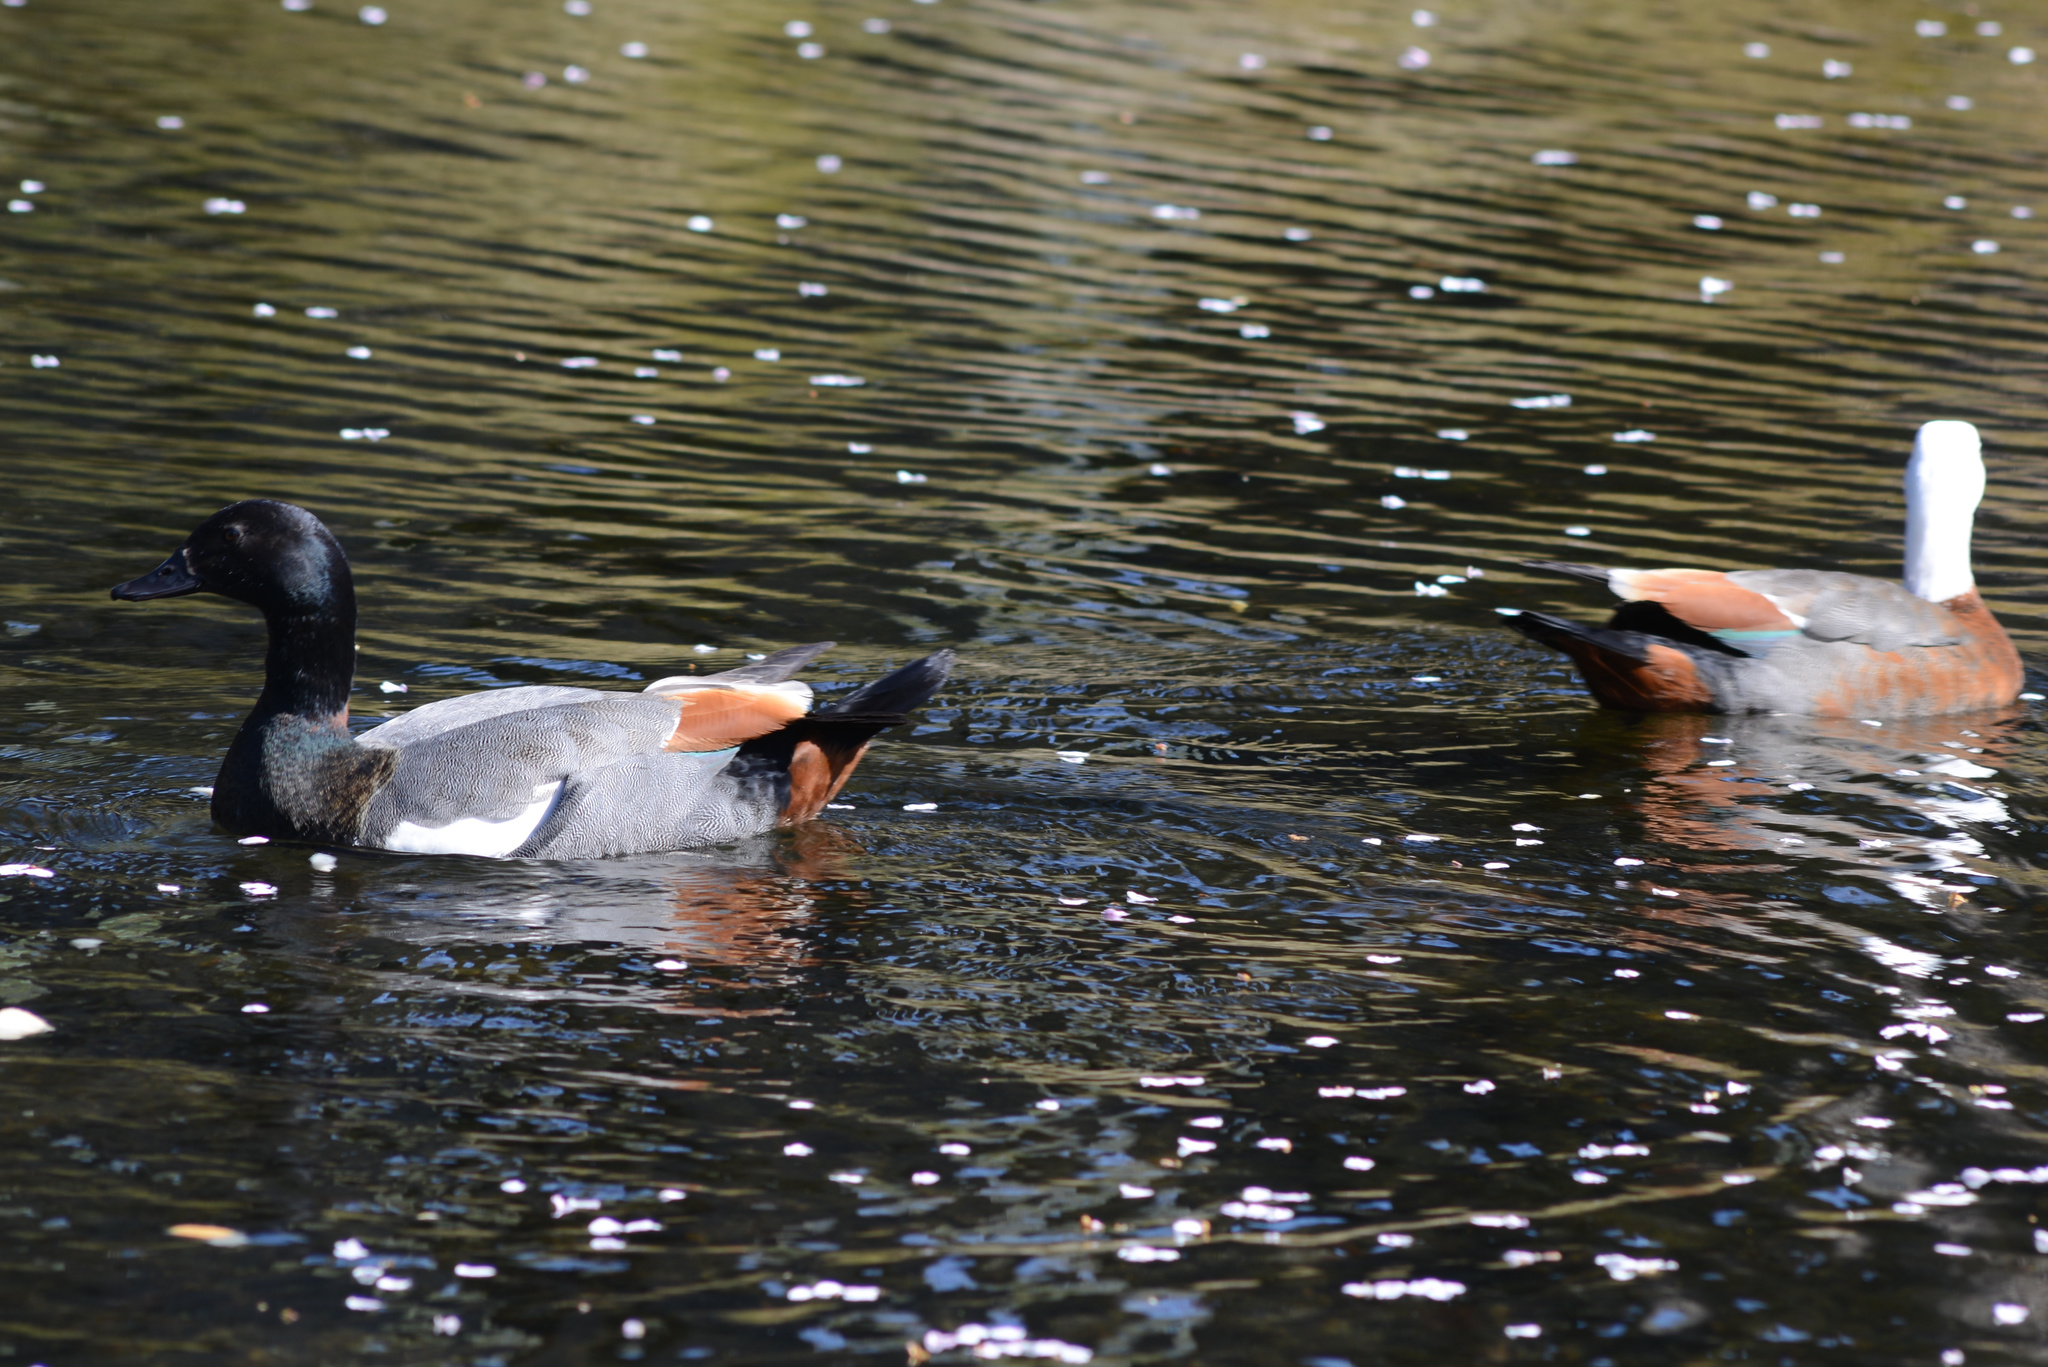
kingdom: Animalia
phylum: Chordata
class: Aves
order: Anseriformes
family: Anatidae
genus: Tadorna
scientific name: Tadorna variegata
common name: Paradise shelduck
